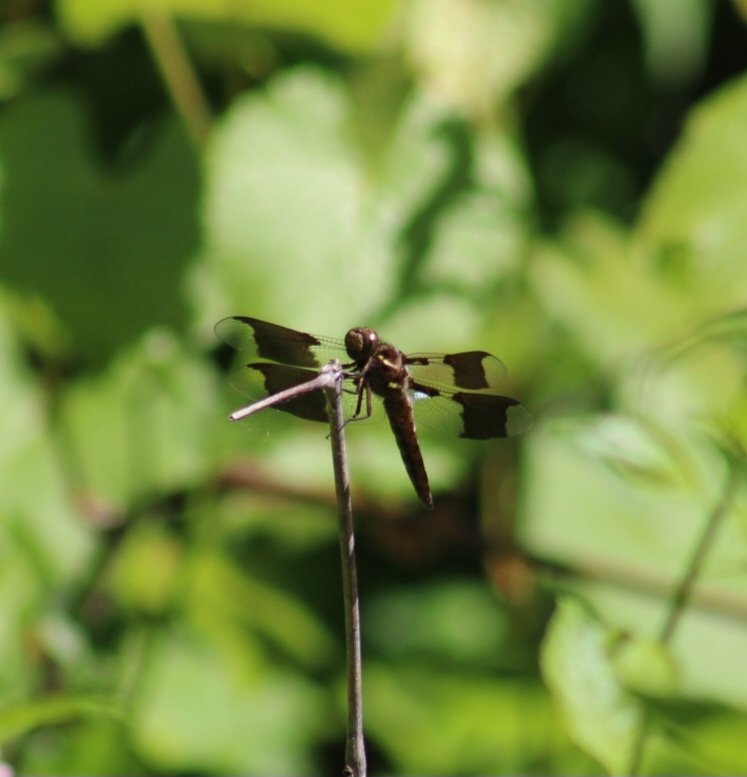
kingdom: Animalia
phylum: Arthropoda
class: Insecta
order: Odonata
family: Libellulidae
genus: Plathemis
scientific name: Plathemis lydia
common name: Common whitetail
